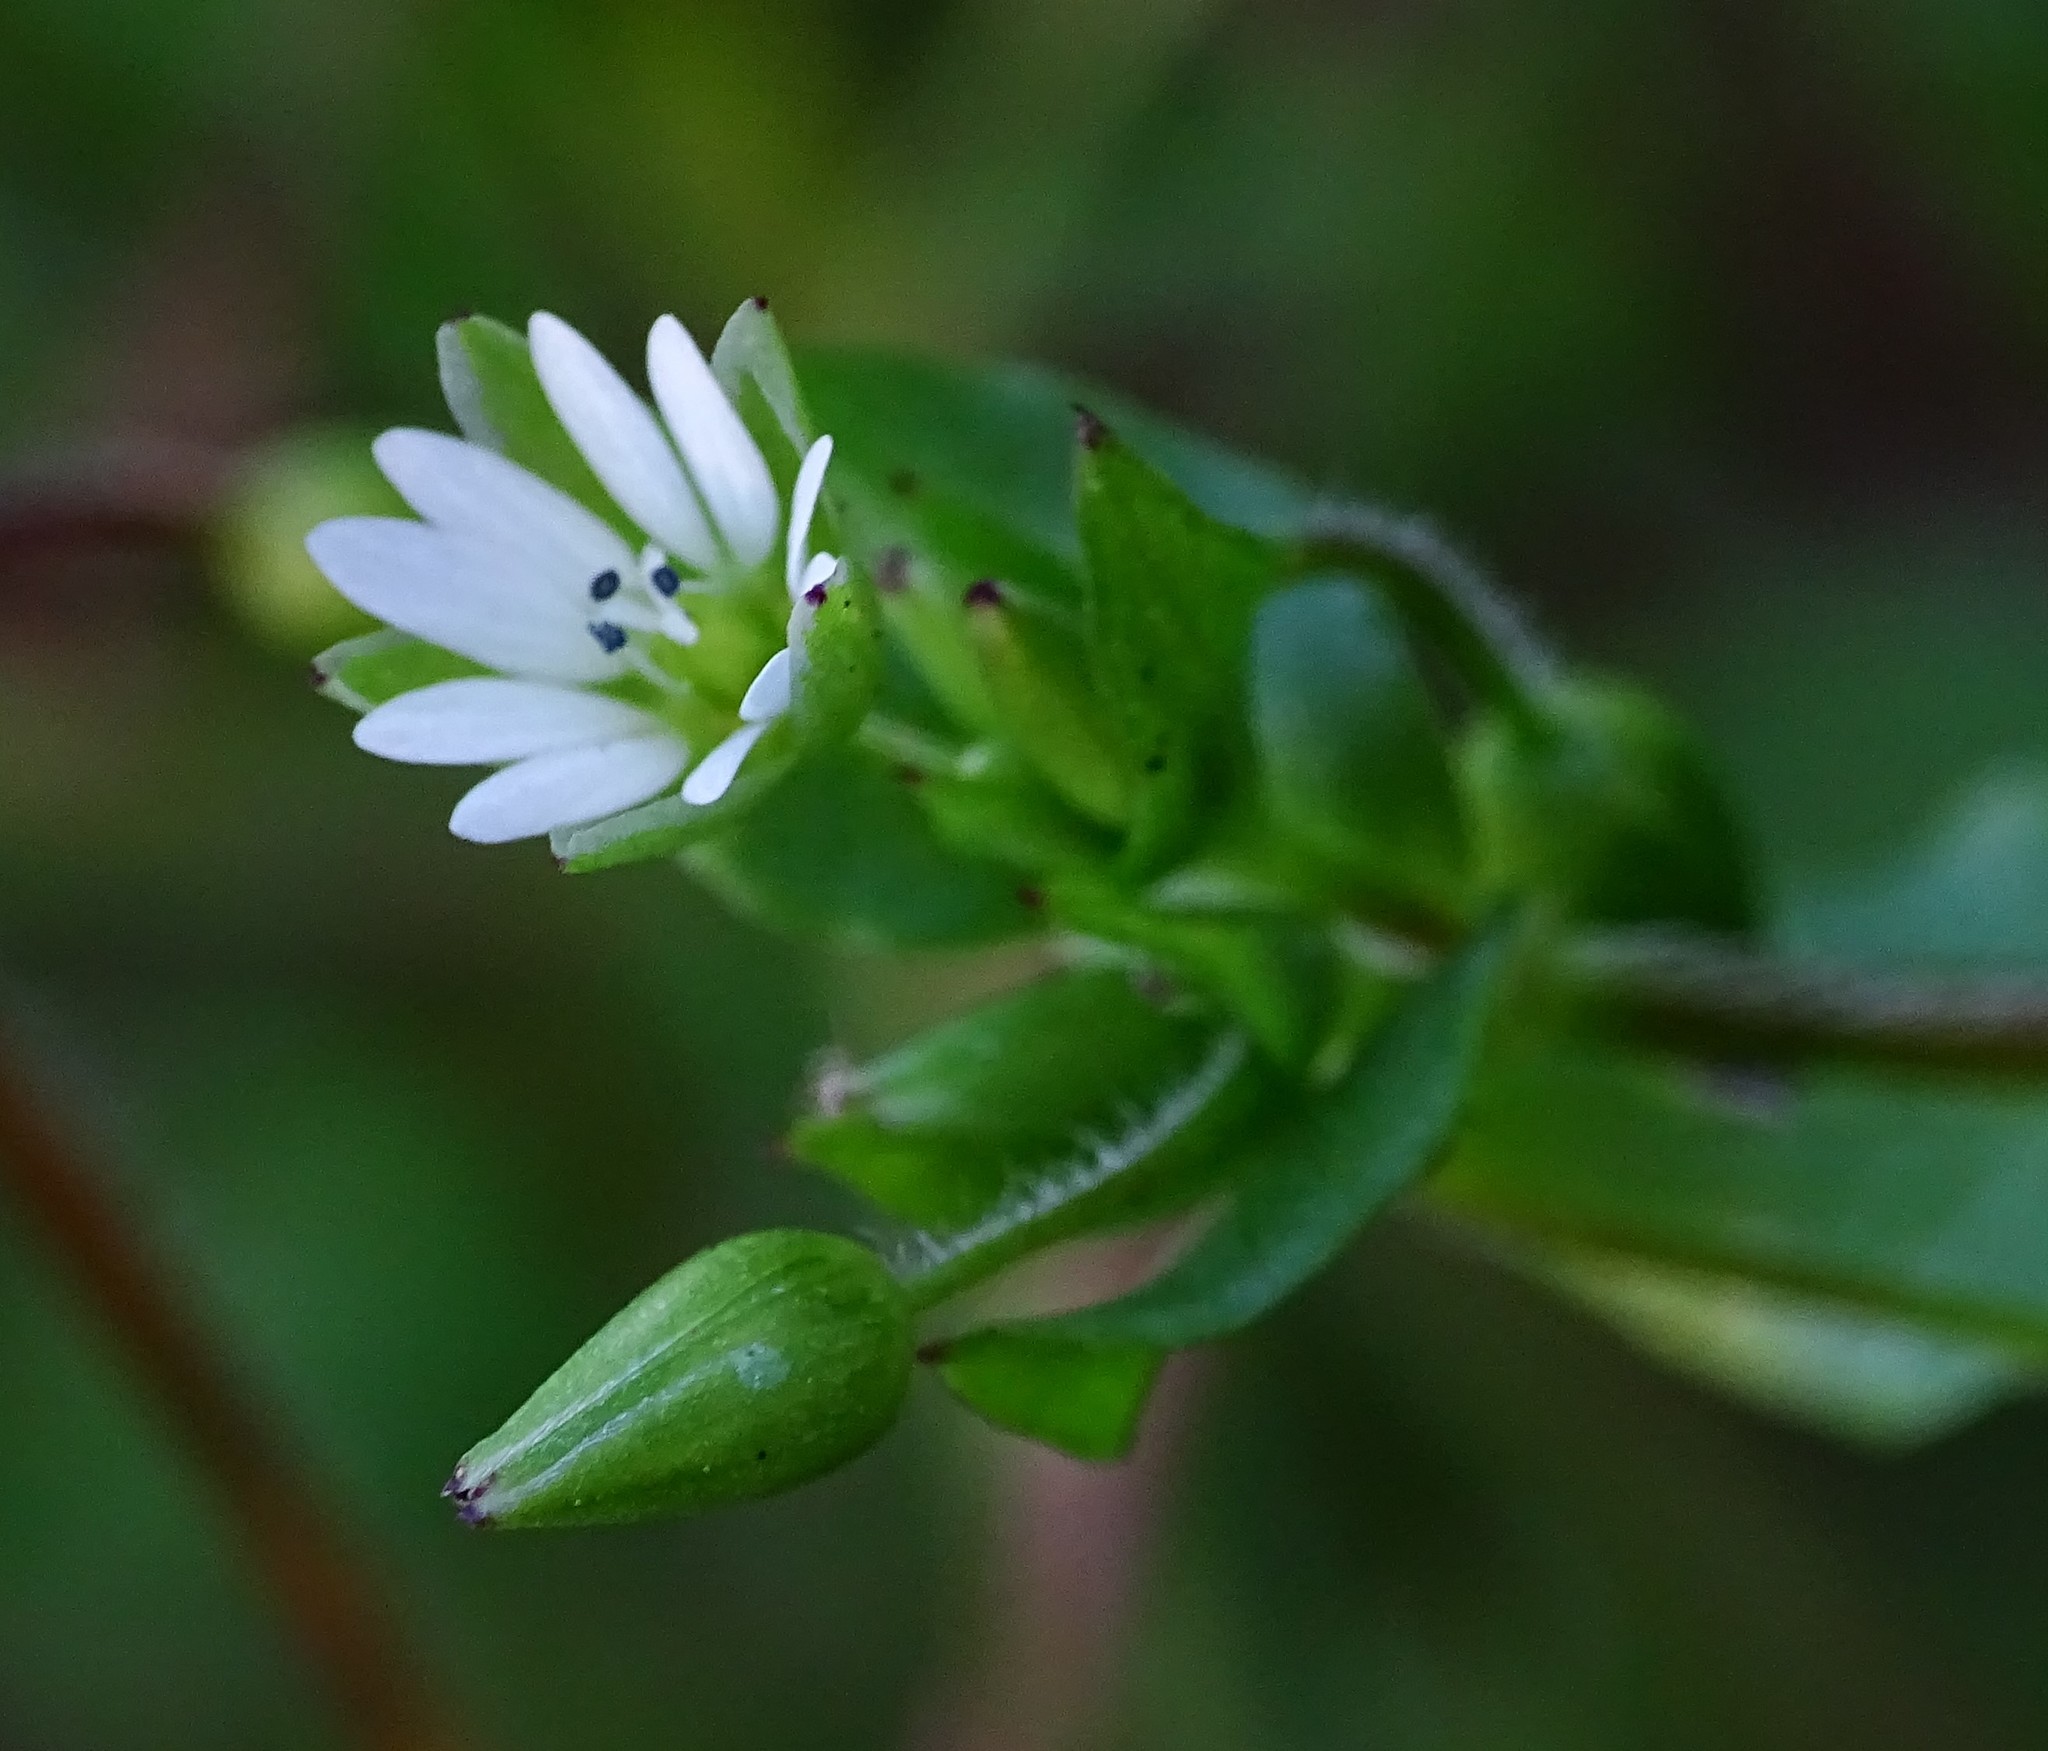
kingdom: Plantae
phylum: Tracheophyta
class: Magnoliopsida
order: Caryophyllales
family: Caryophyllaceae
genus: Stellaria
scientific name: Stellaria media
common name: Common chickweed
